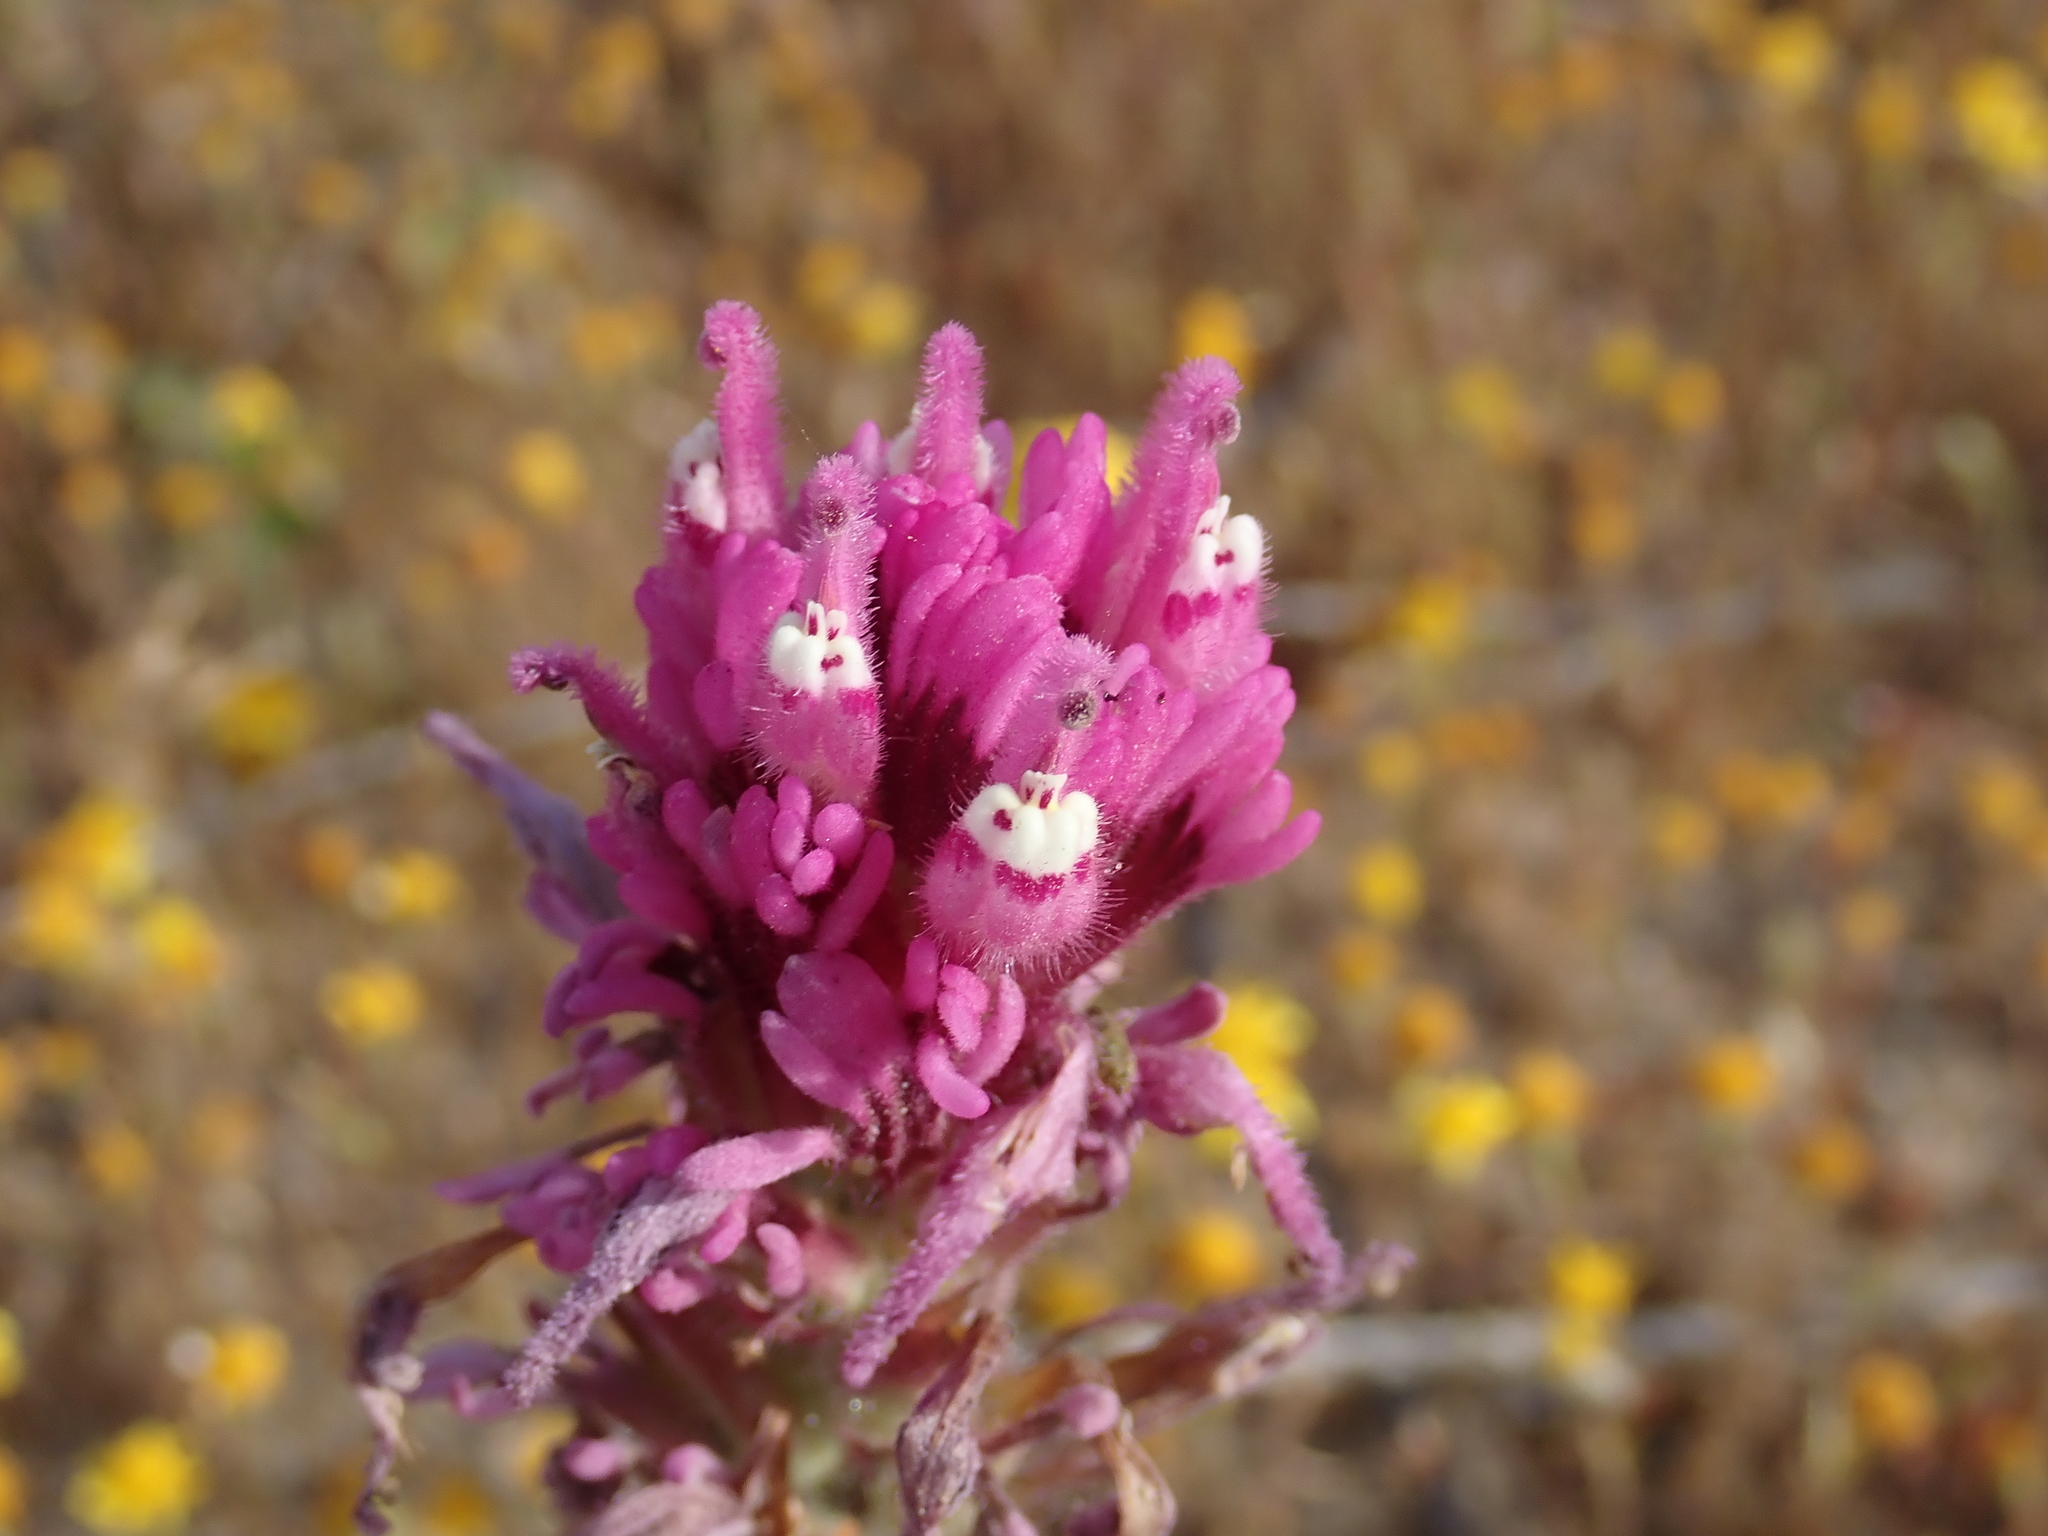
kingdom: Plantae
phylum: Tracheophyta
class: Magnoliopsida
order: Lamiales
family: Orobanchaceae
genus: Castilleja
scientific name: Castilleja exserta
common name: Purple owl-clover
